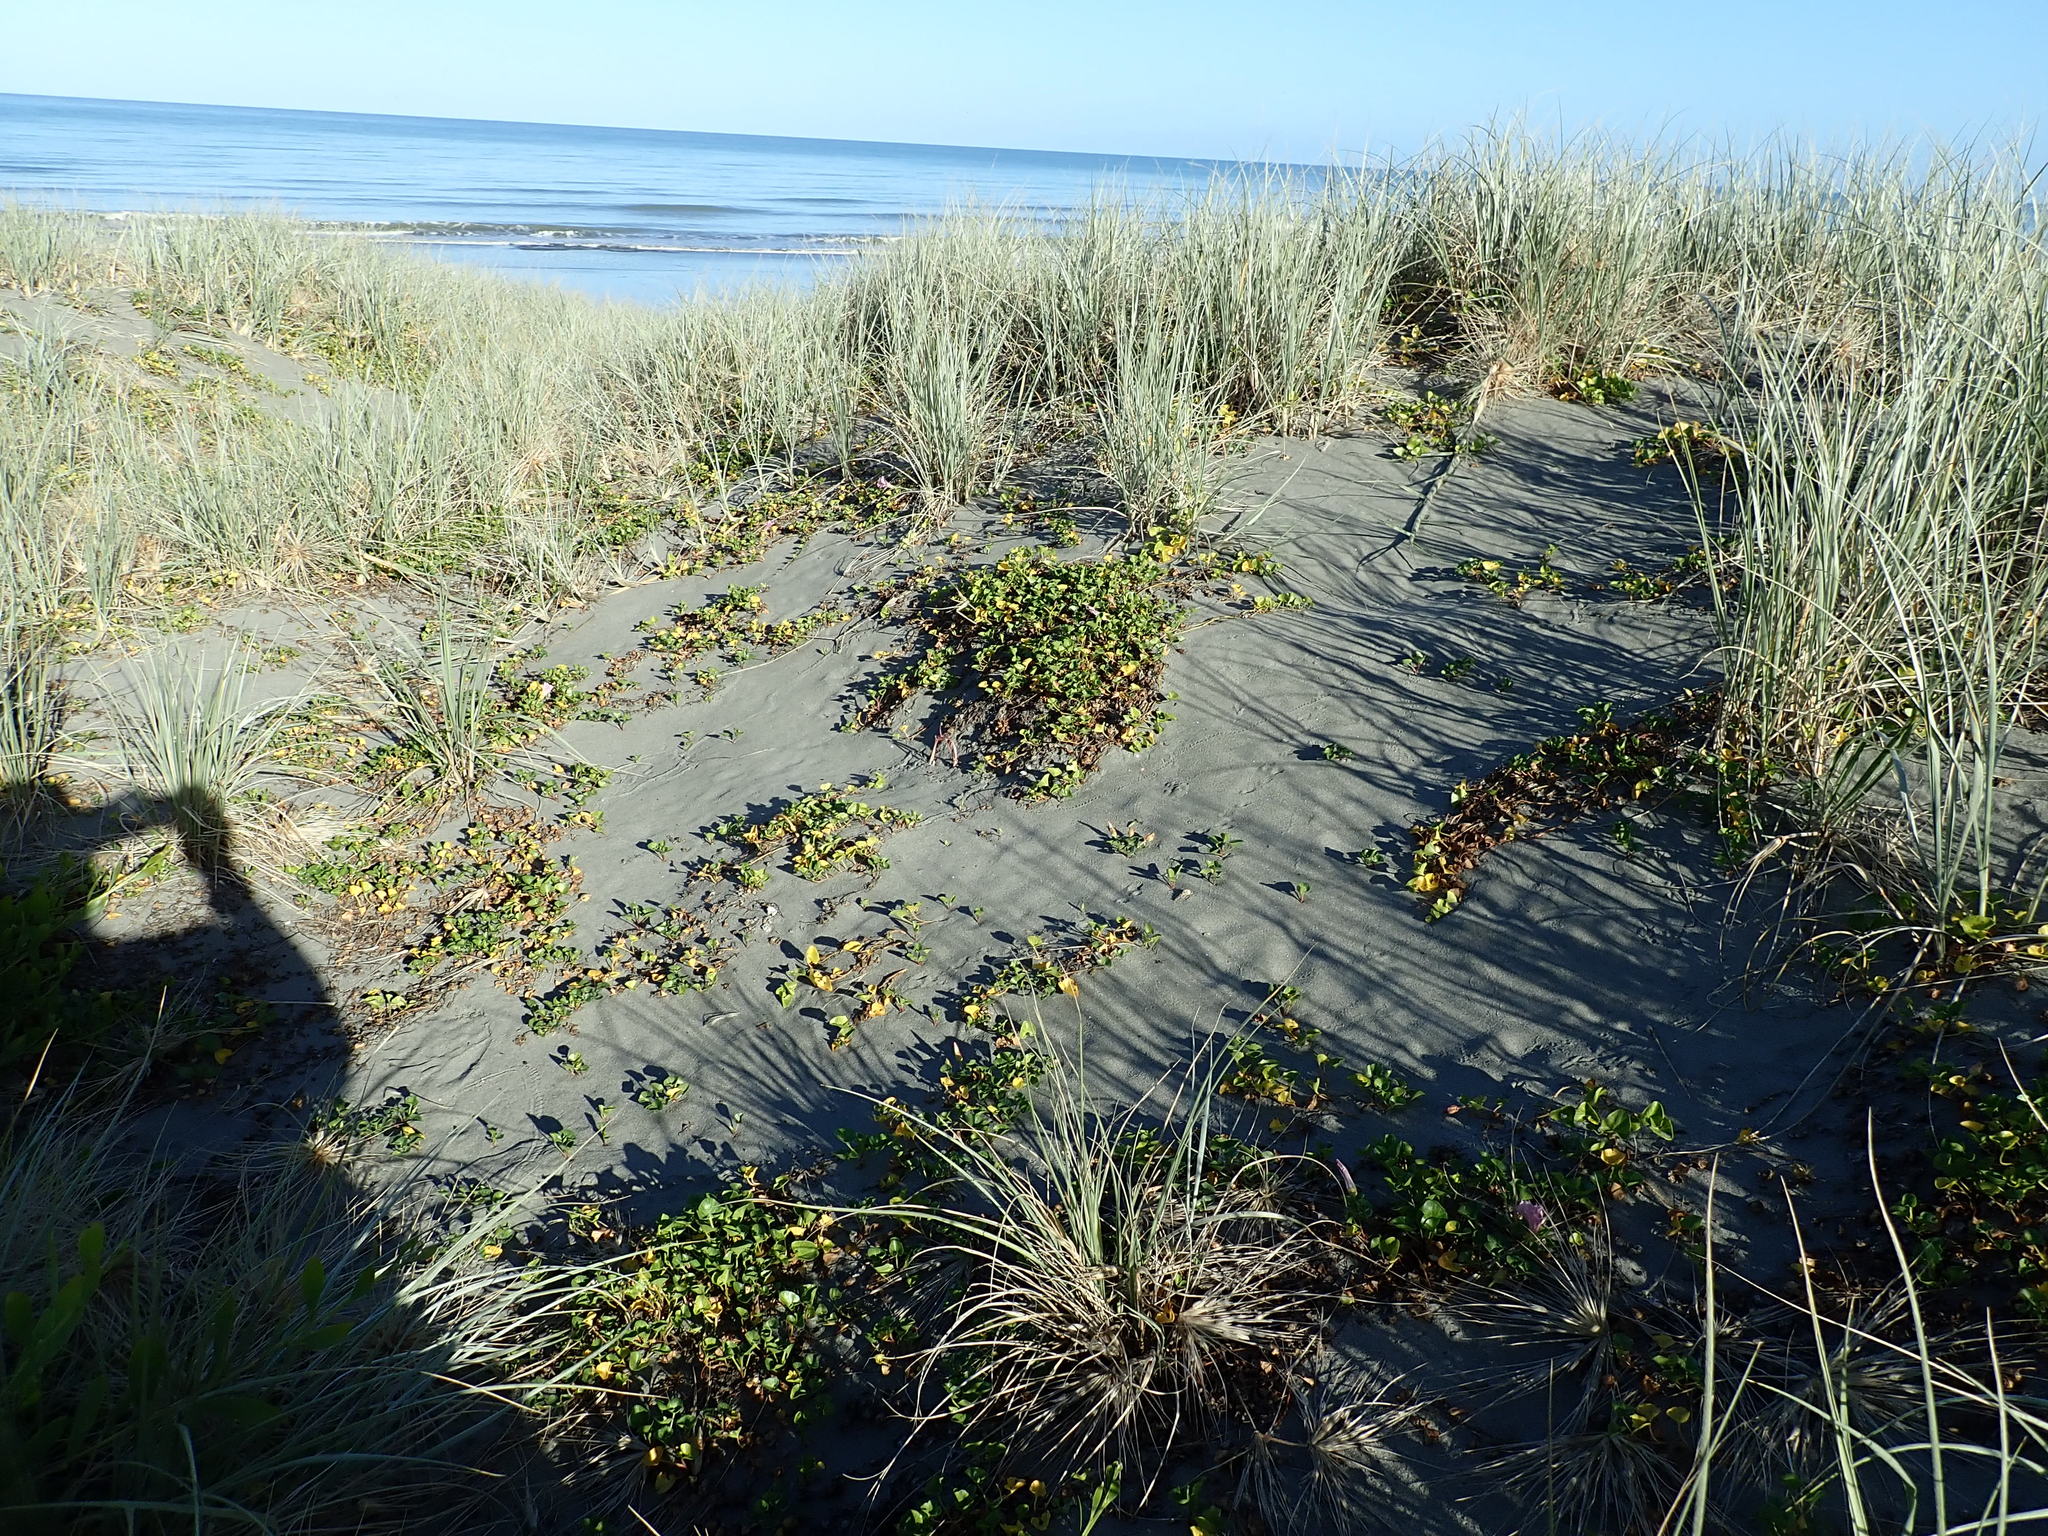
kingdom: Plantae
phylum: Tracheophyta
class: Magnoliopsida
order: Solanales
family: Convolvulaceae
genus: Calystegia
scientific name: Calystegia soldanella
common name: Sea bindweed
